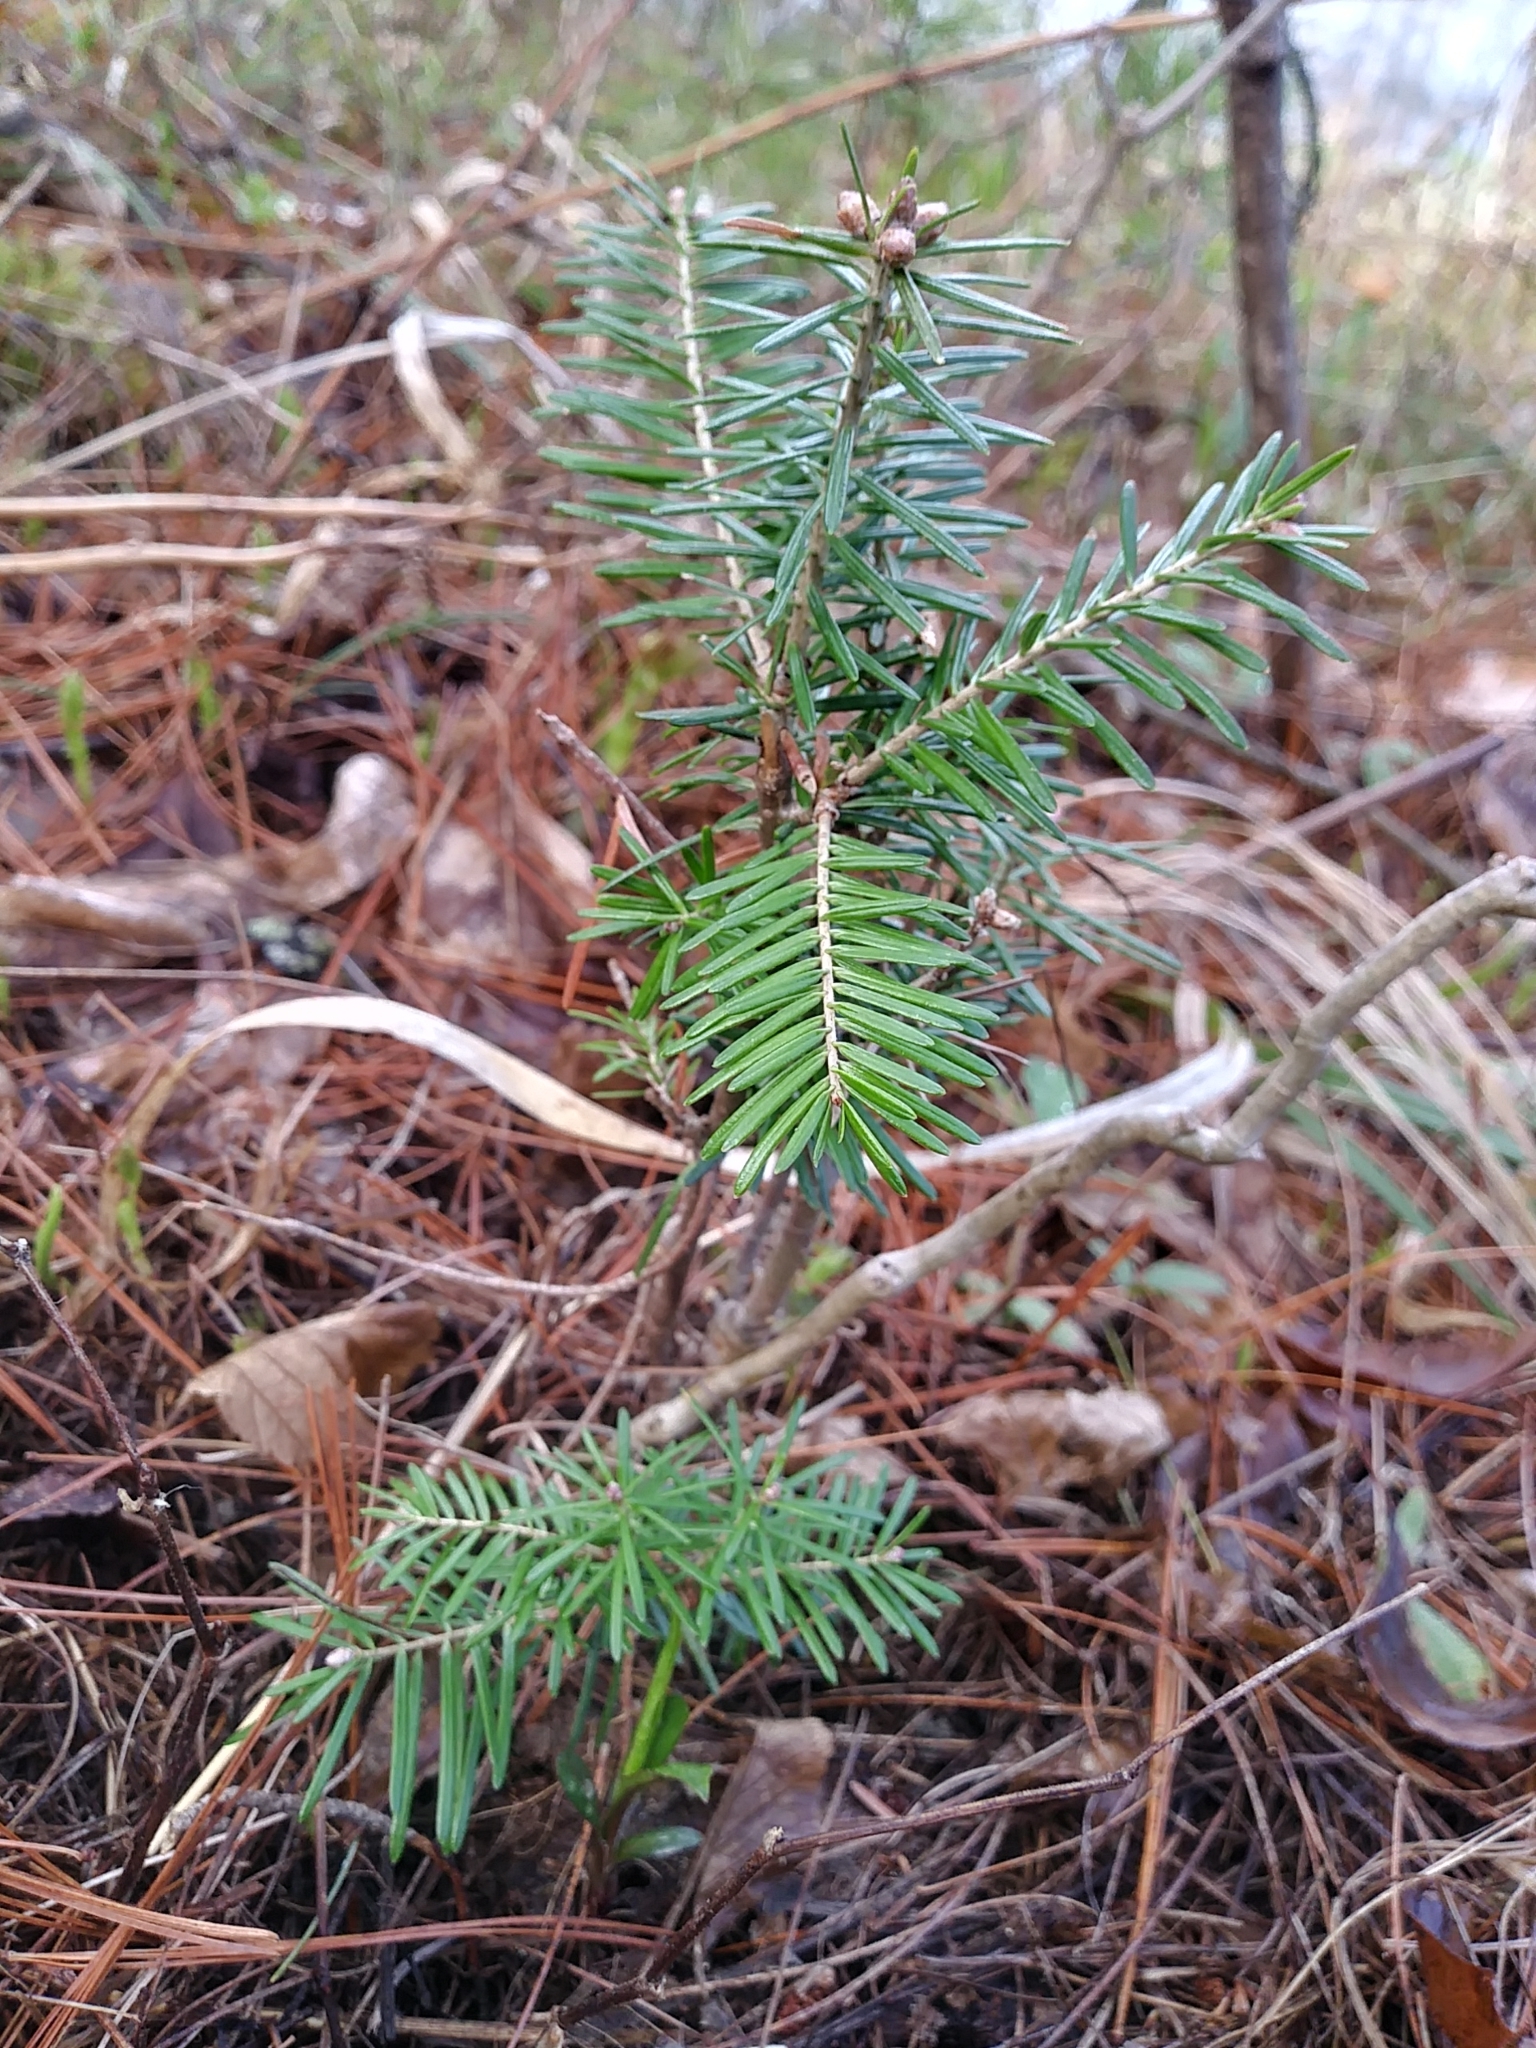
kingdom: Plantae
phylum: Tracheophyta
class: Pinopsida
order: Pinales
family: Pinaceae
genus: Abies
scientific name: Abies balsamea
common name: Balsam fir
